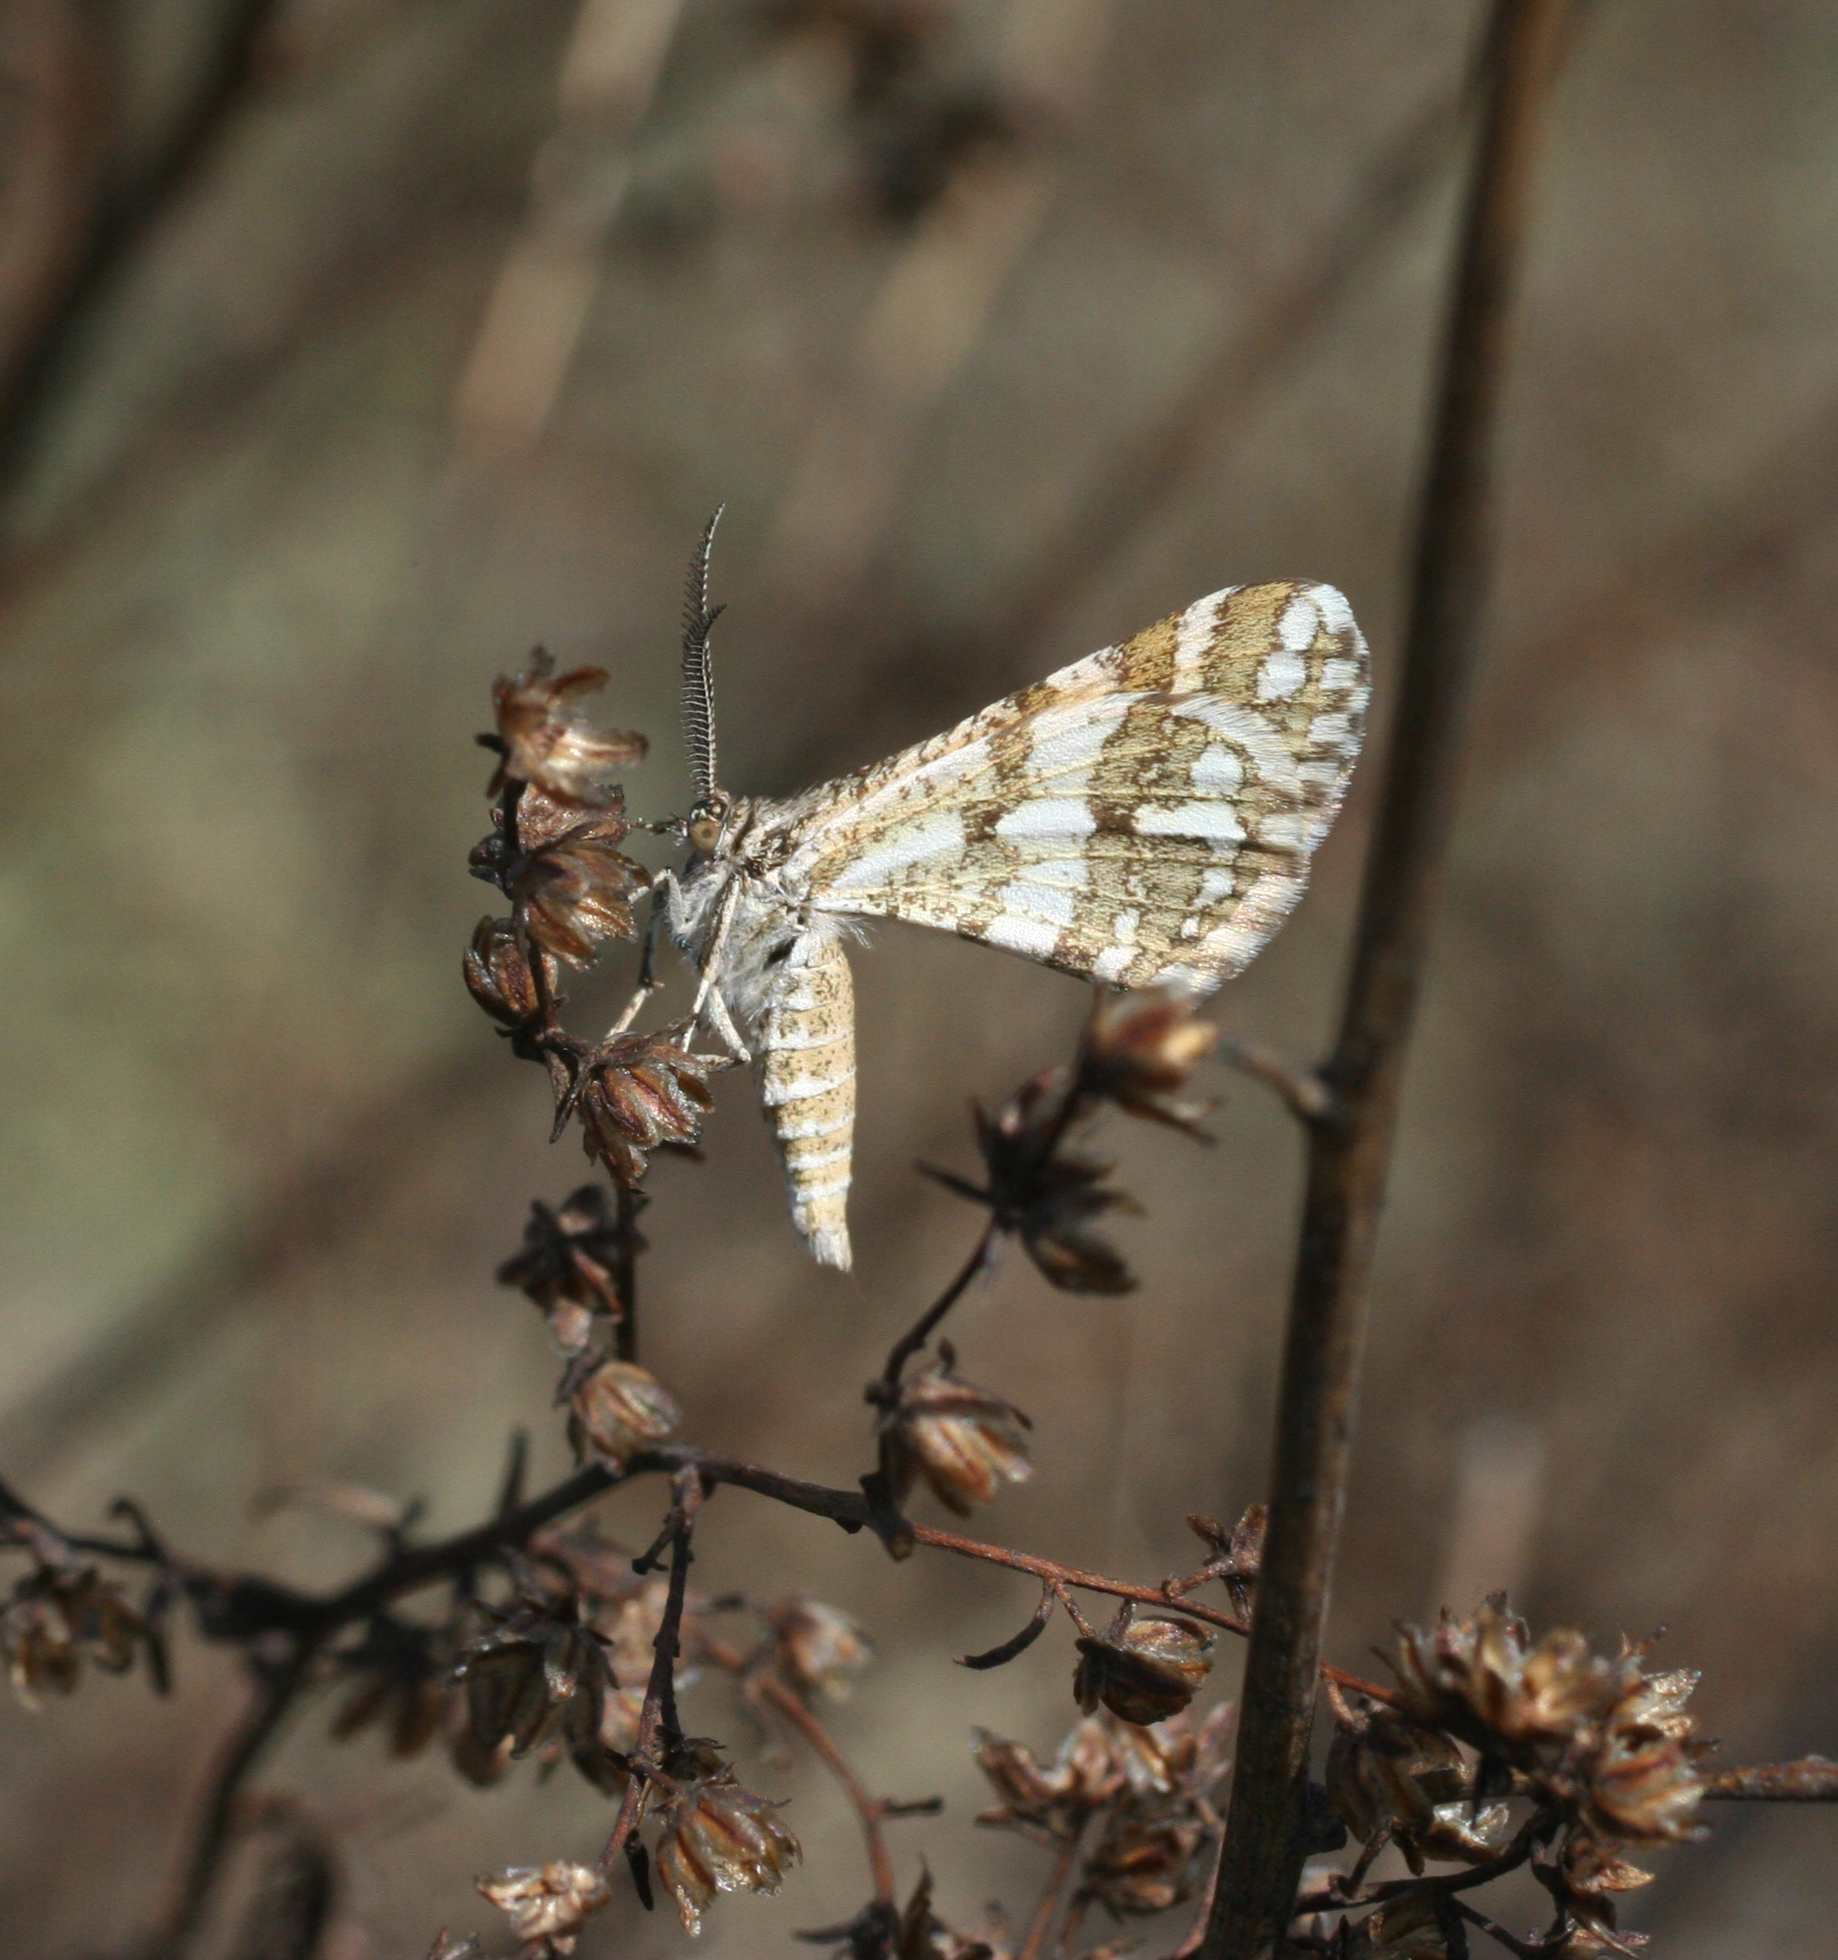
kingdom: Animalia
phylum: Arthropoda
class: Insecta
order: Lepidoptera
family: Geometridae
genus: Narraga
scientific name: Narraga fasciolaria
